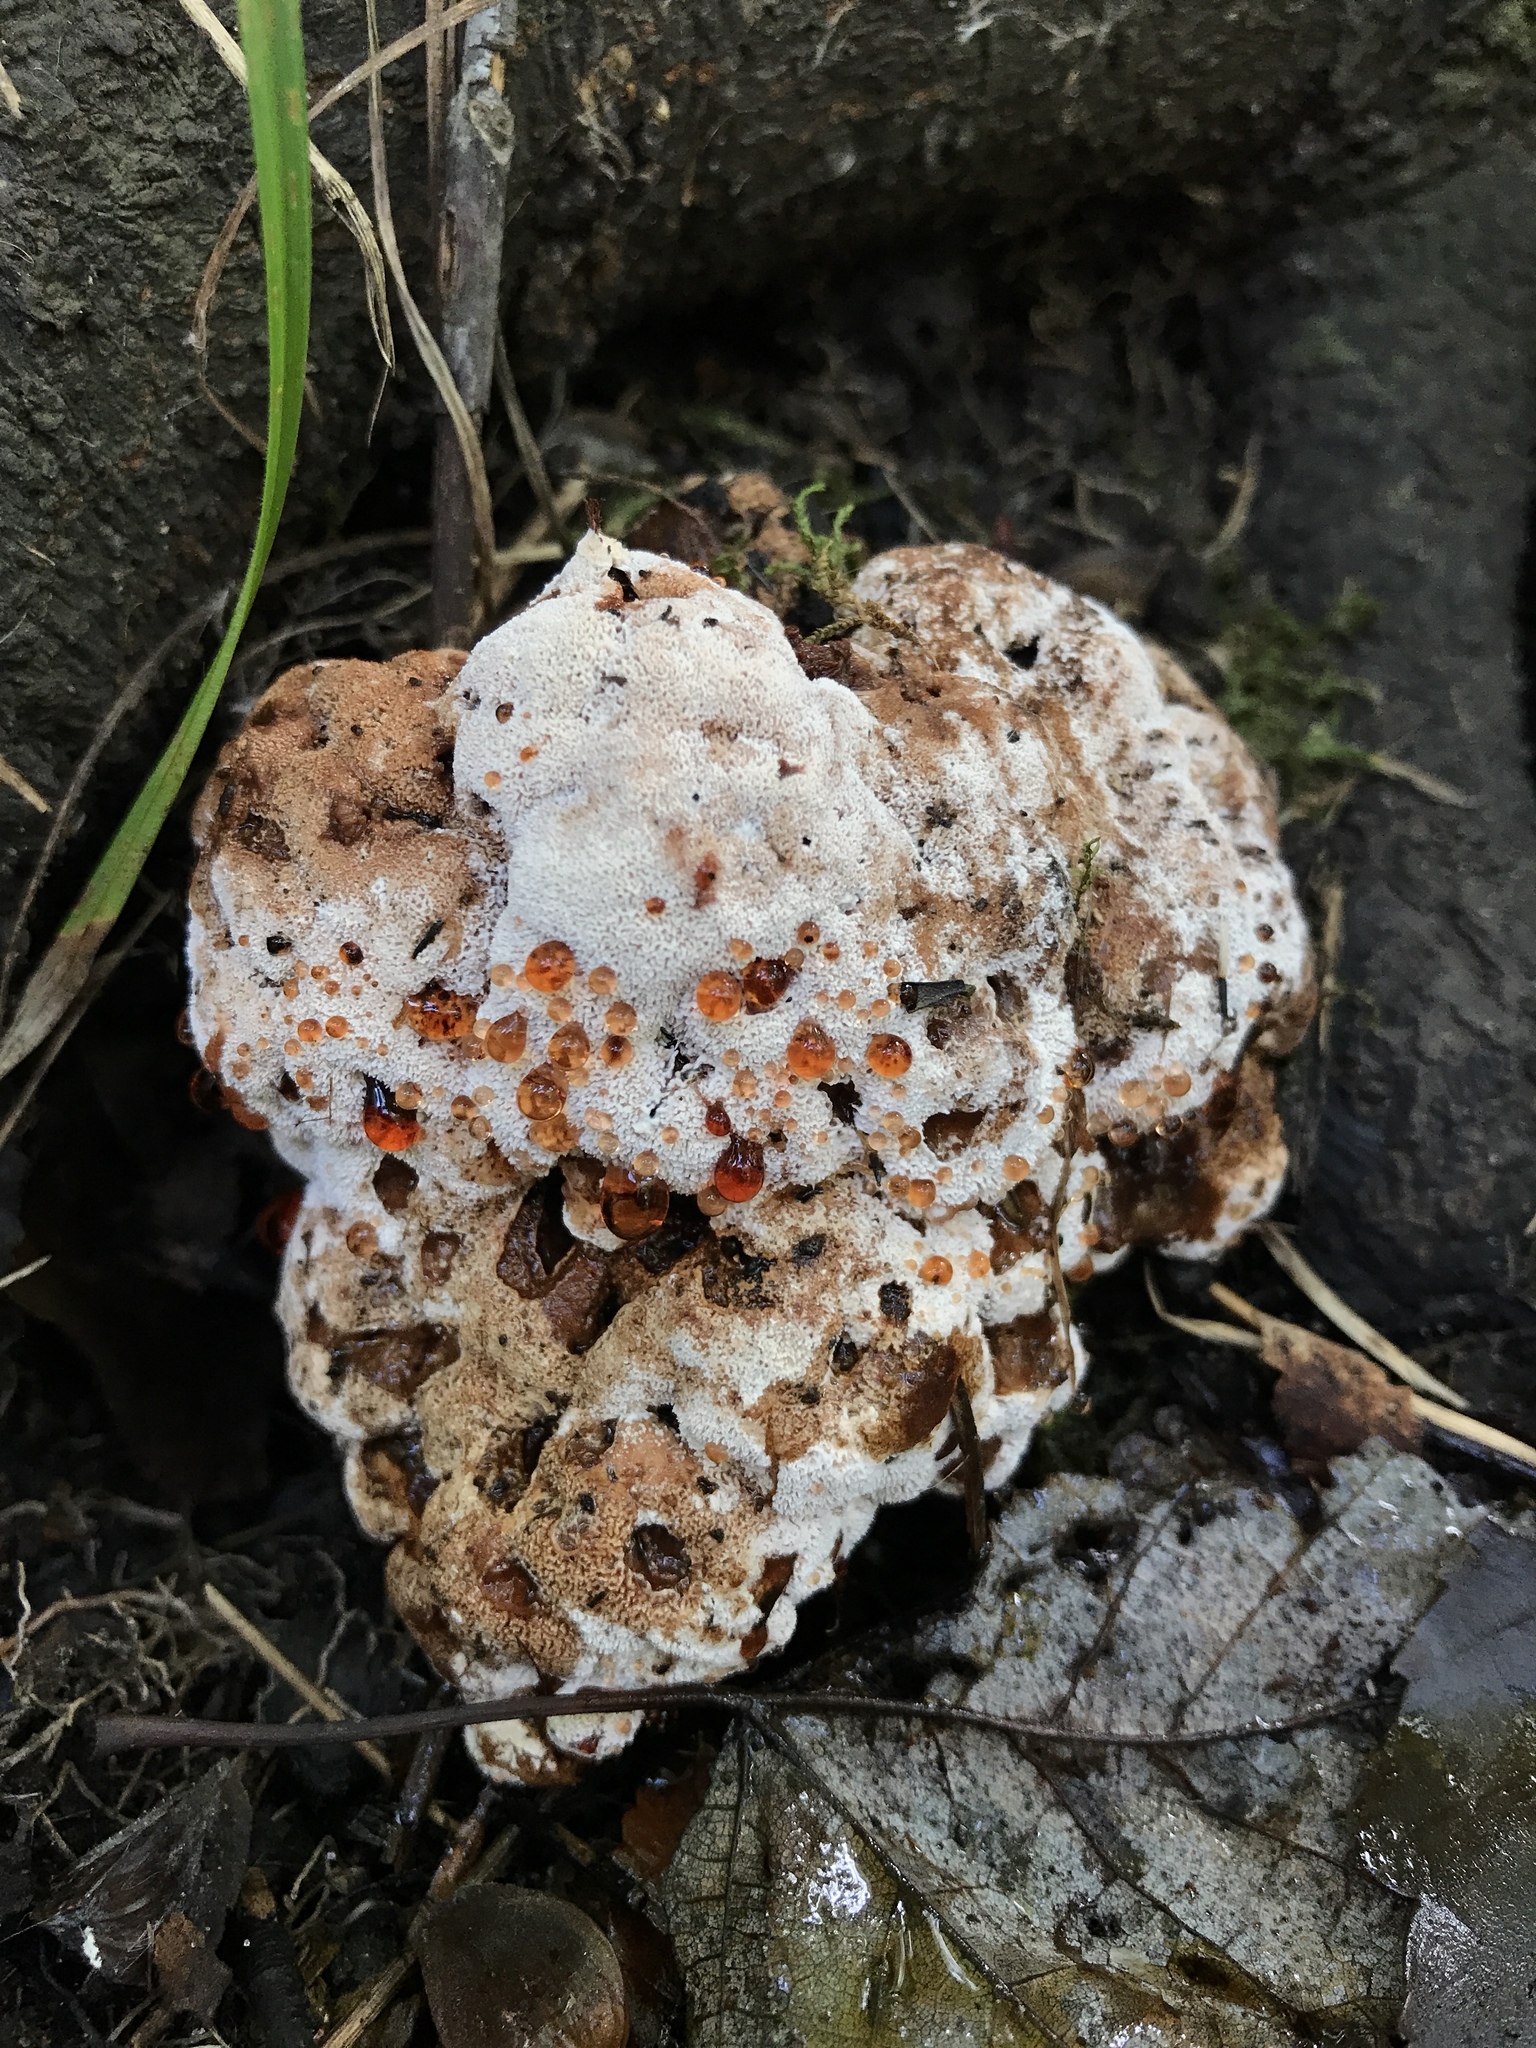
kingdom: Fungi
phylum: Basidiomycota
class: Agaricomycetes
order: Polyporales
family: Podoscyphaceae
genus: Abortiporus
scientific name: Abortiporus biennis
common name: Blushing rosette
